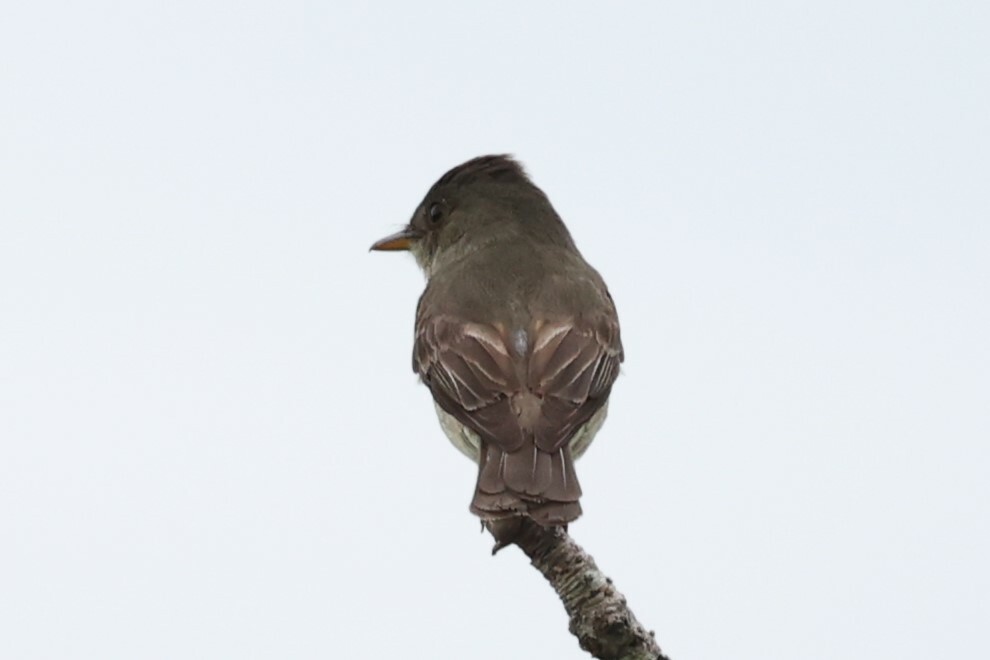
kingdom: Animalia
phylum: Chordata
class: Aves
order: Passeriformes
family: Tyrannidae
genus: Contopus
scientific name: Contopus virens
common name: Eastern wood-pewee
